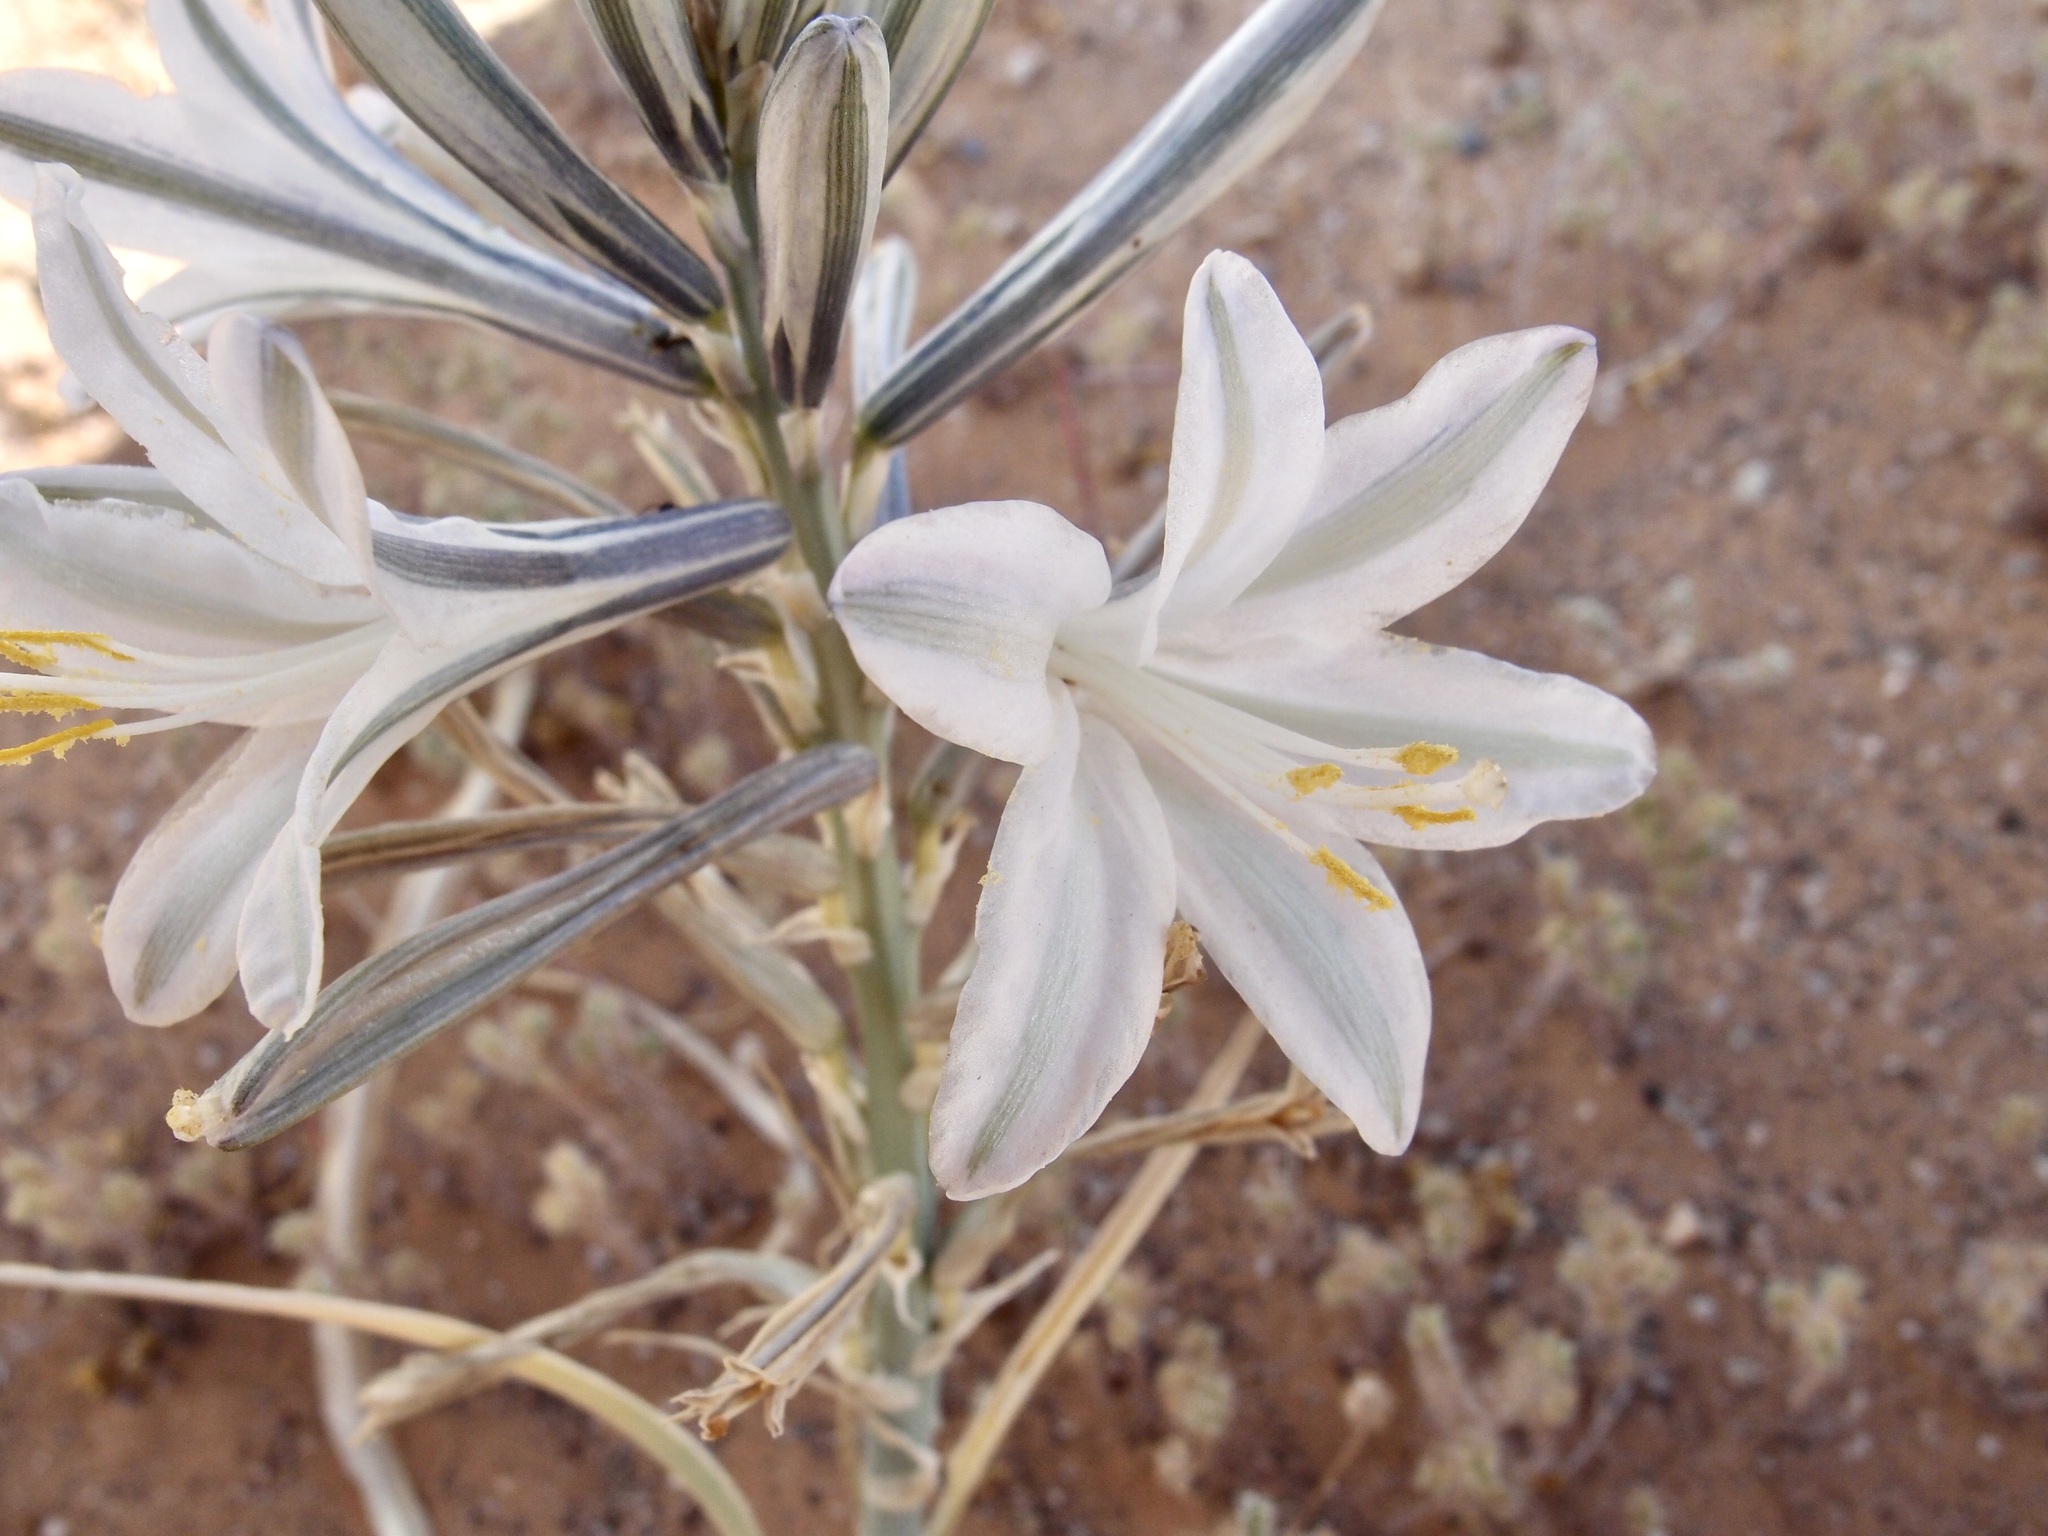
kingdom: Plantae
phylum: Tracheophyta
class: Liliopsida
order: Asparagales
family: Asparagaceae
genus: Hesperocallis
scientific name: Hesperocallis undulata
